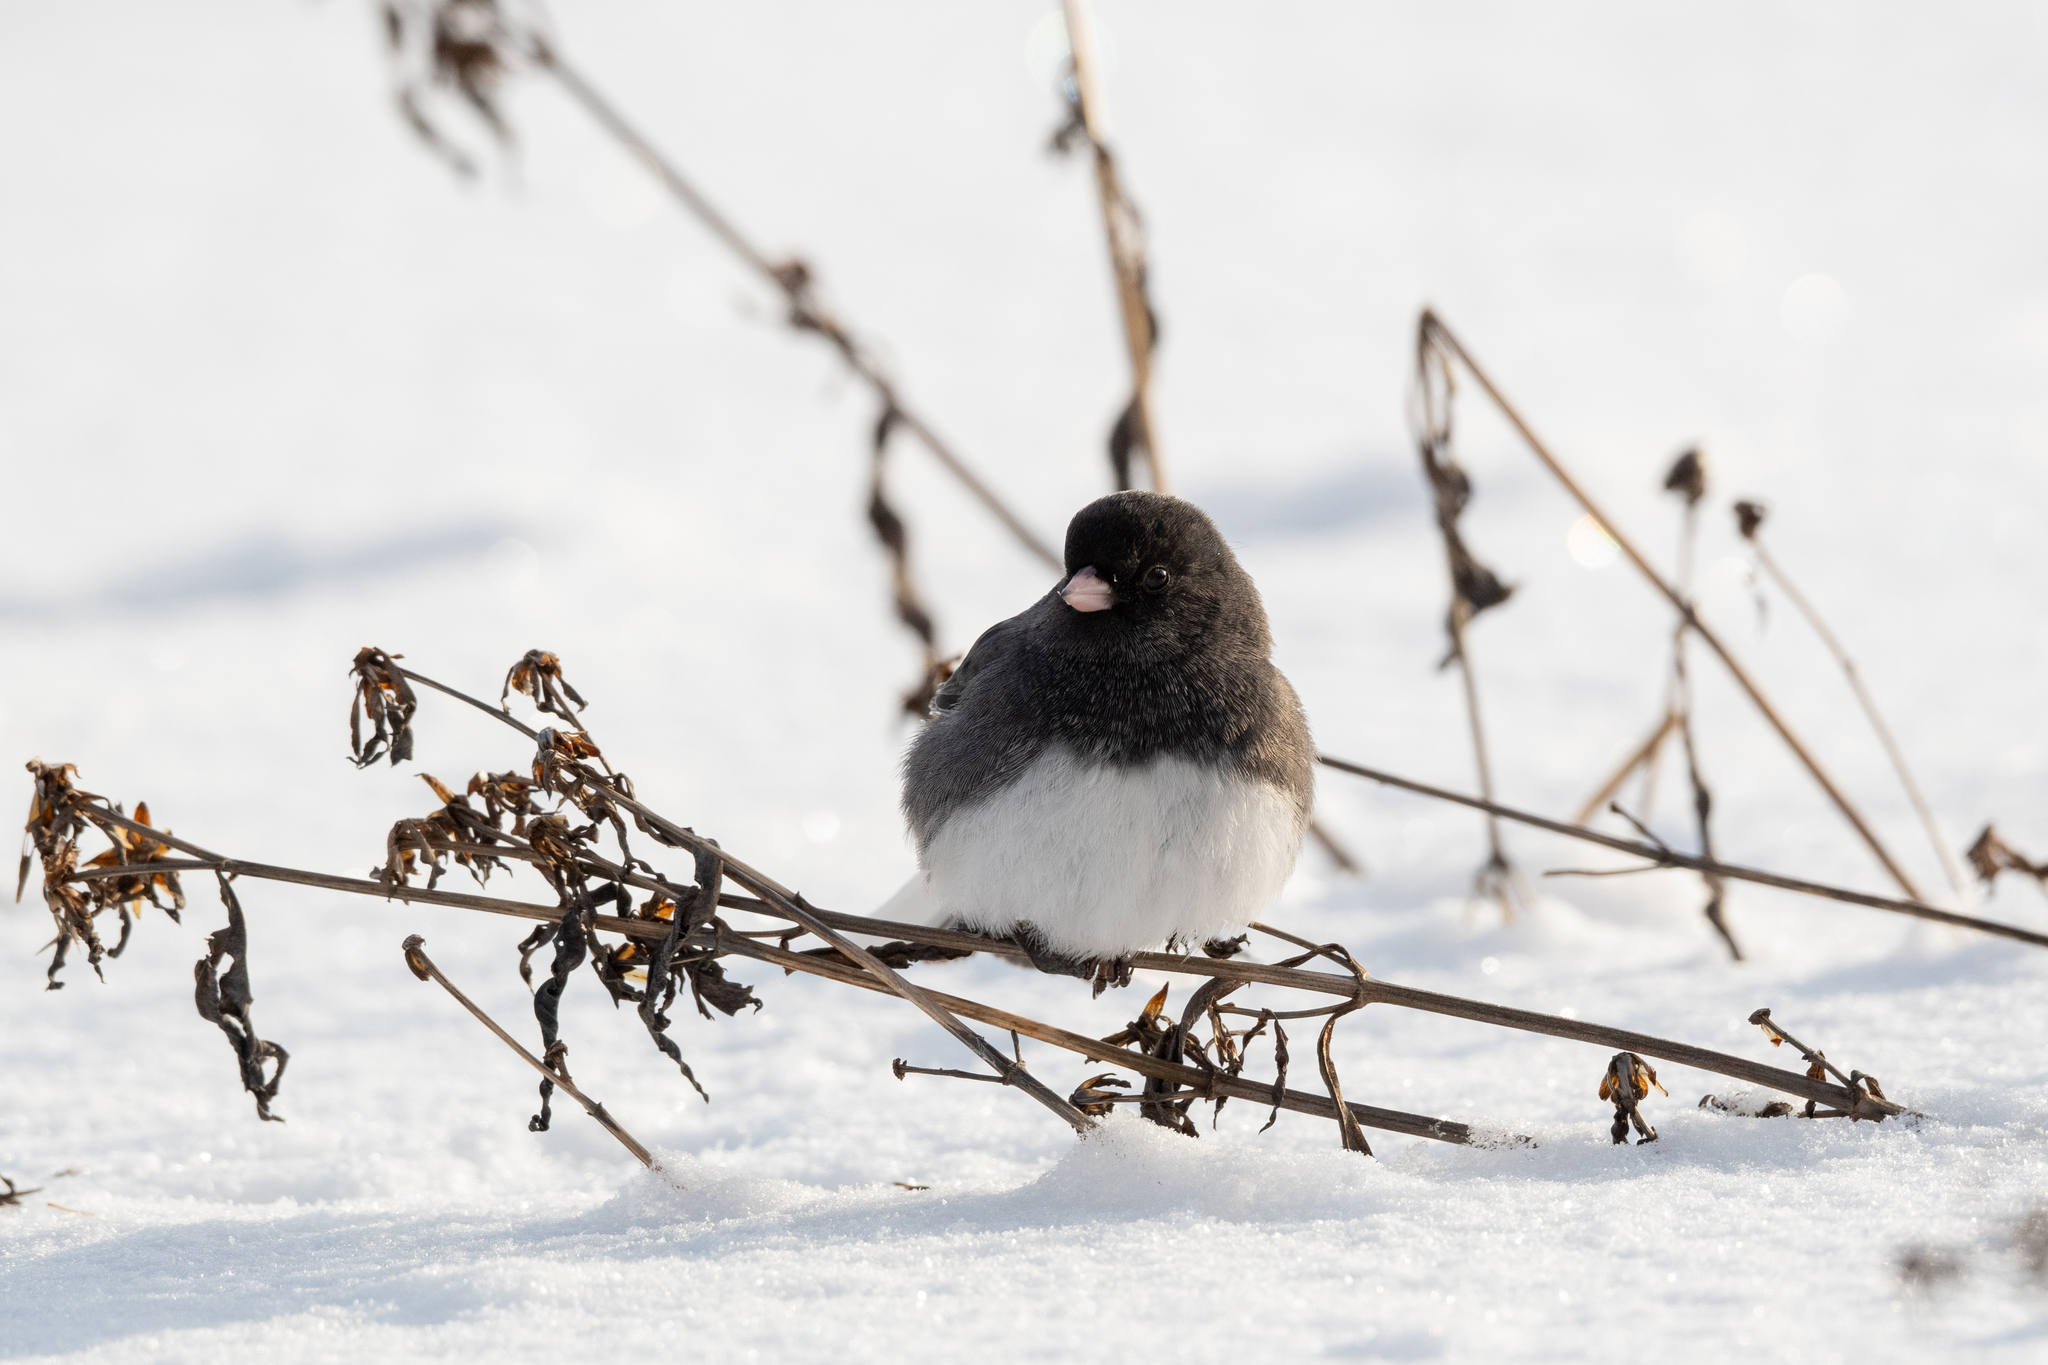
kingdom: Animalia
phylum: Chordata
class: Aves
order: Passeriformes
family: Passerellidae
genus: Junco
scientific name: Junco hyemalis
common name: Dark-eyed junco
